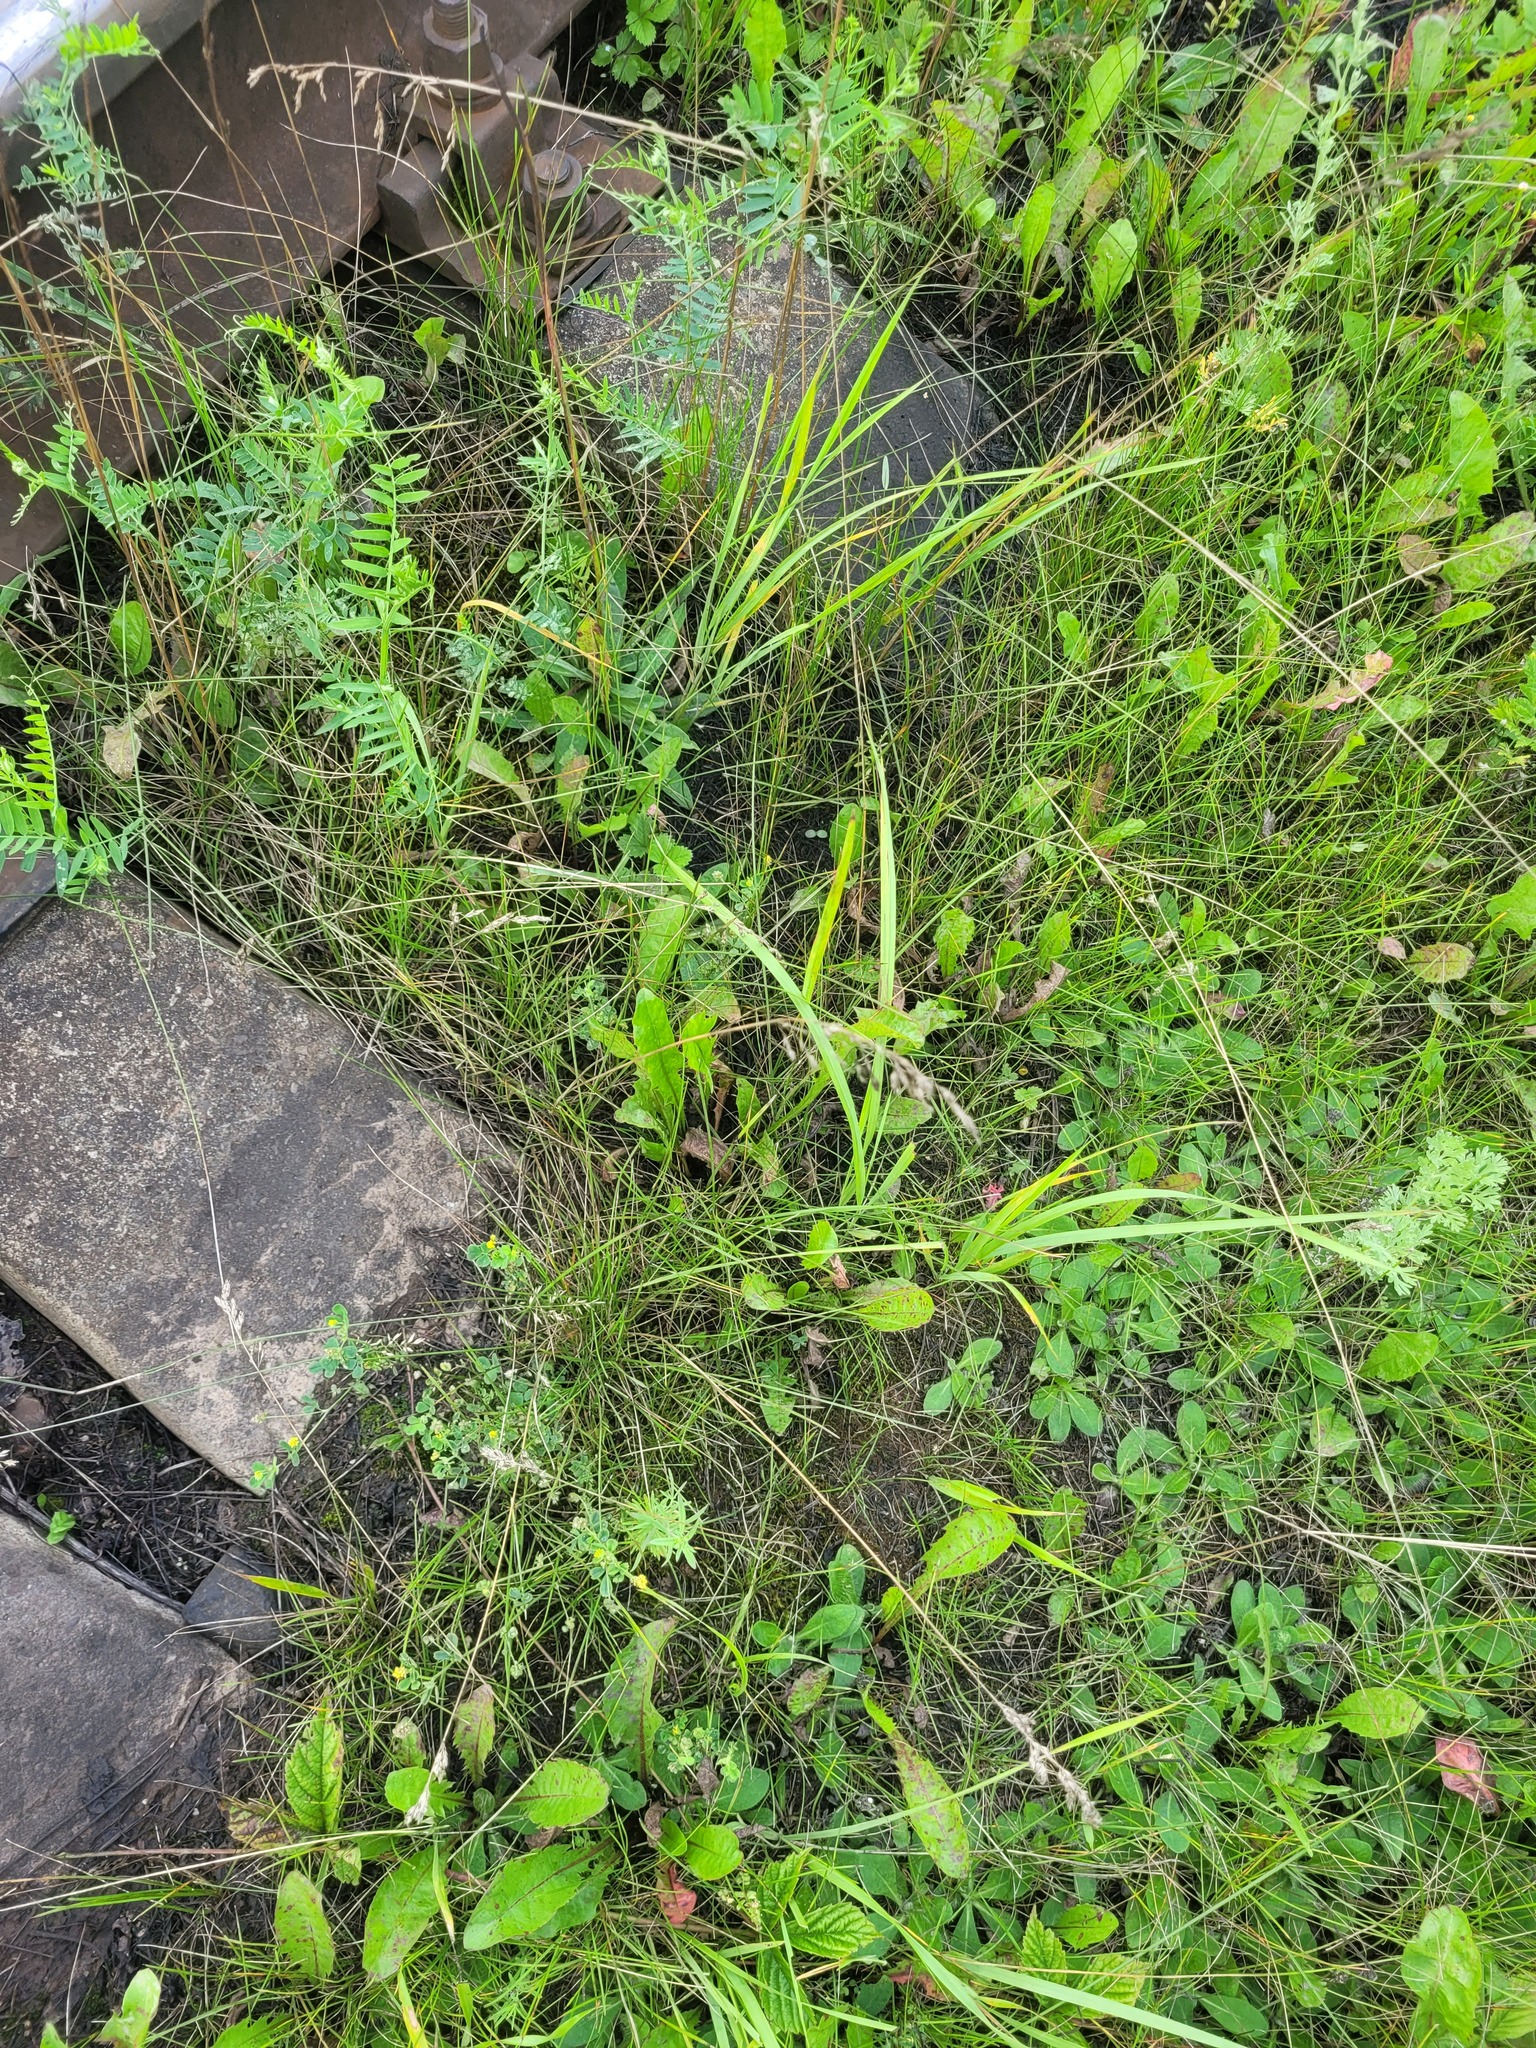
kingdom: Plantae
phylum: Tracheophyta
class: Liliopsida
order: Poales
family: Poaceae
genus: Poa
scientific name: Poa angustifolia
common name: Narrow-leaved meadow-grass
